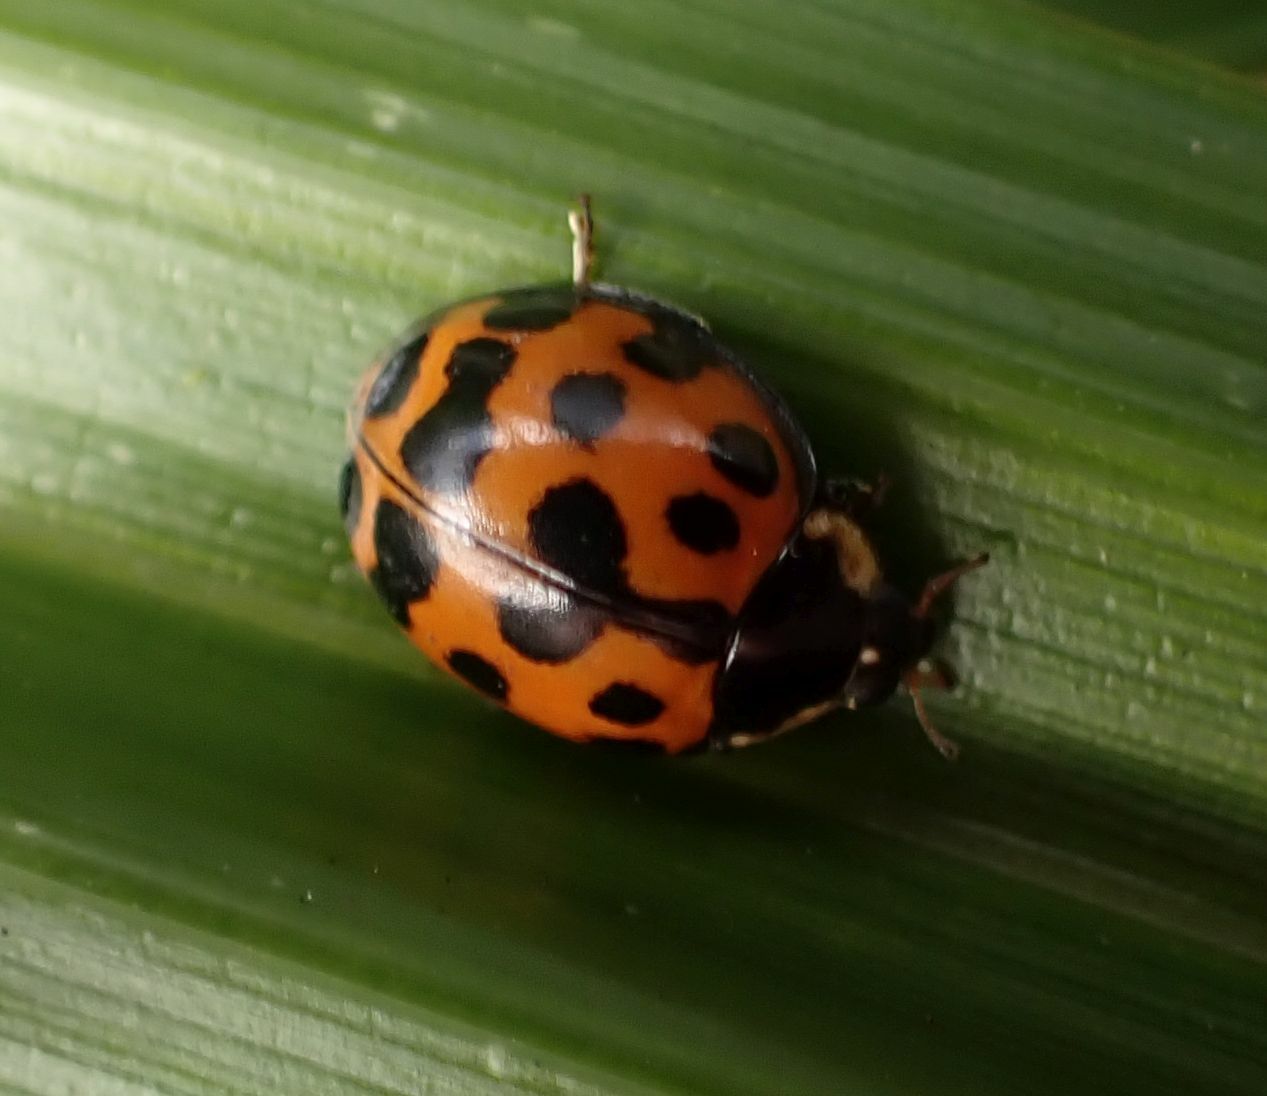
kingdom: Animalia
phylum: Arthropoda
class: Insecta
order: Coleoptera
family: Coccinellidae
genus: Harmonia
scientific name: Harmonia axyridis
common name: Harlequin ladybird
